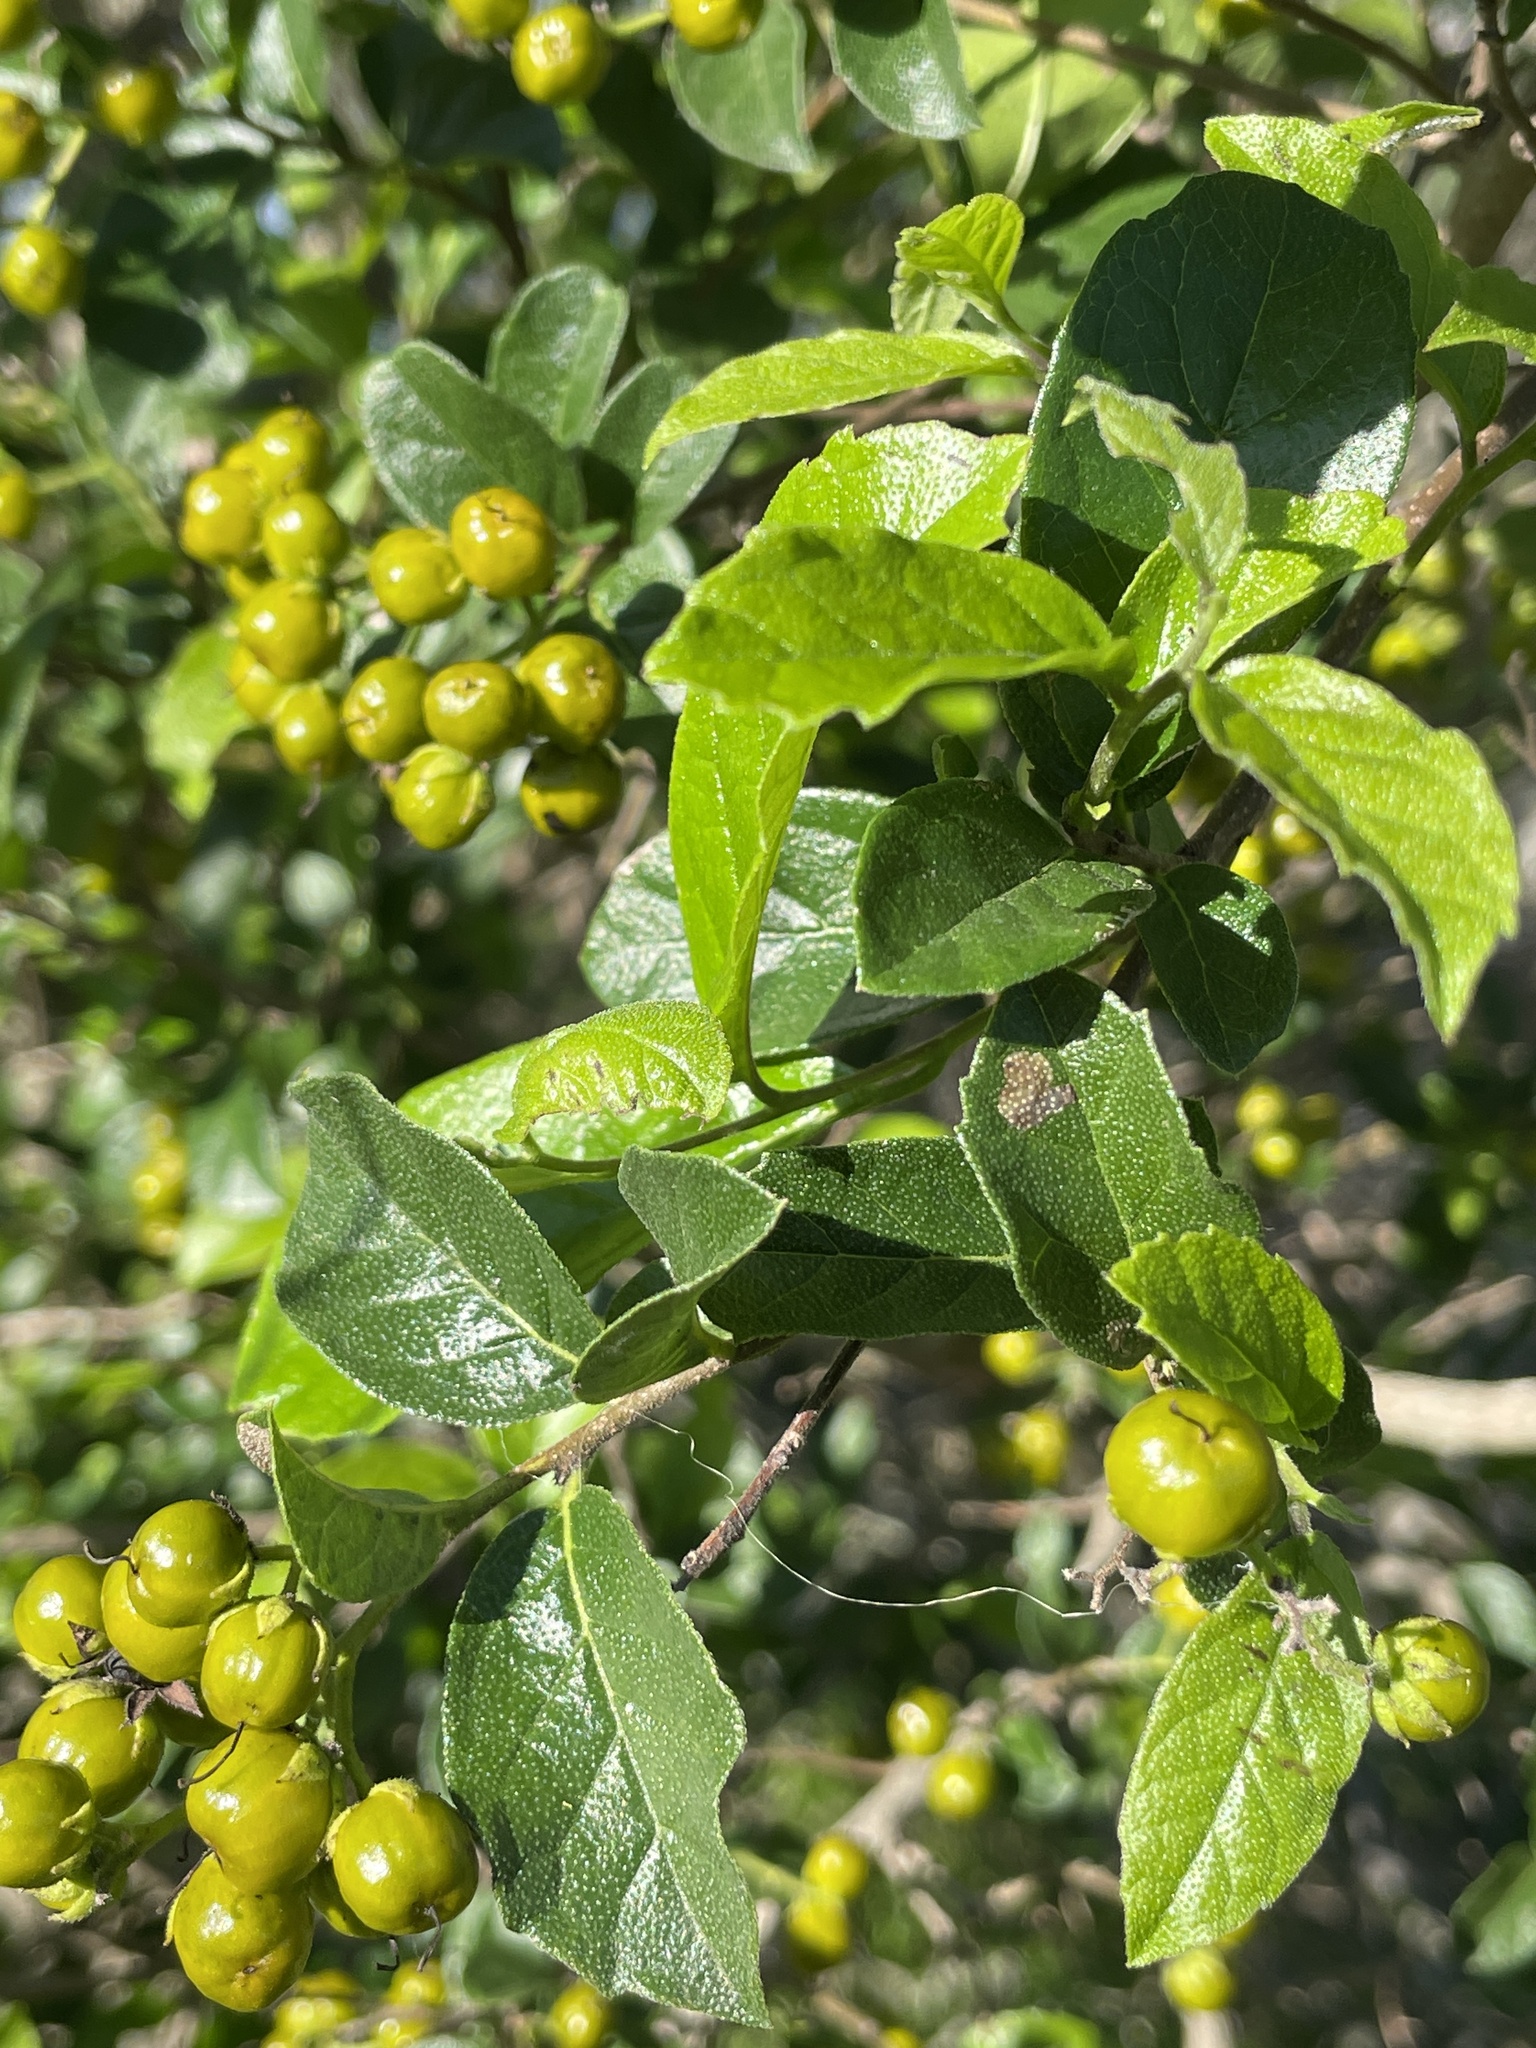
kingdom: Plantae
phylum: Tracheophyta
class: Magnoliopsida
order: Boraginales
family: Ehretiaceae
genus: Ehretia
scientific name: Ehretia anacua
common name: Sugarberry
